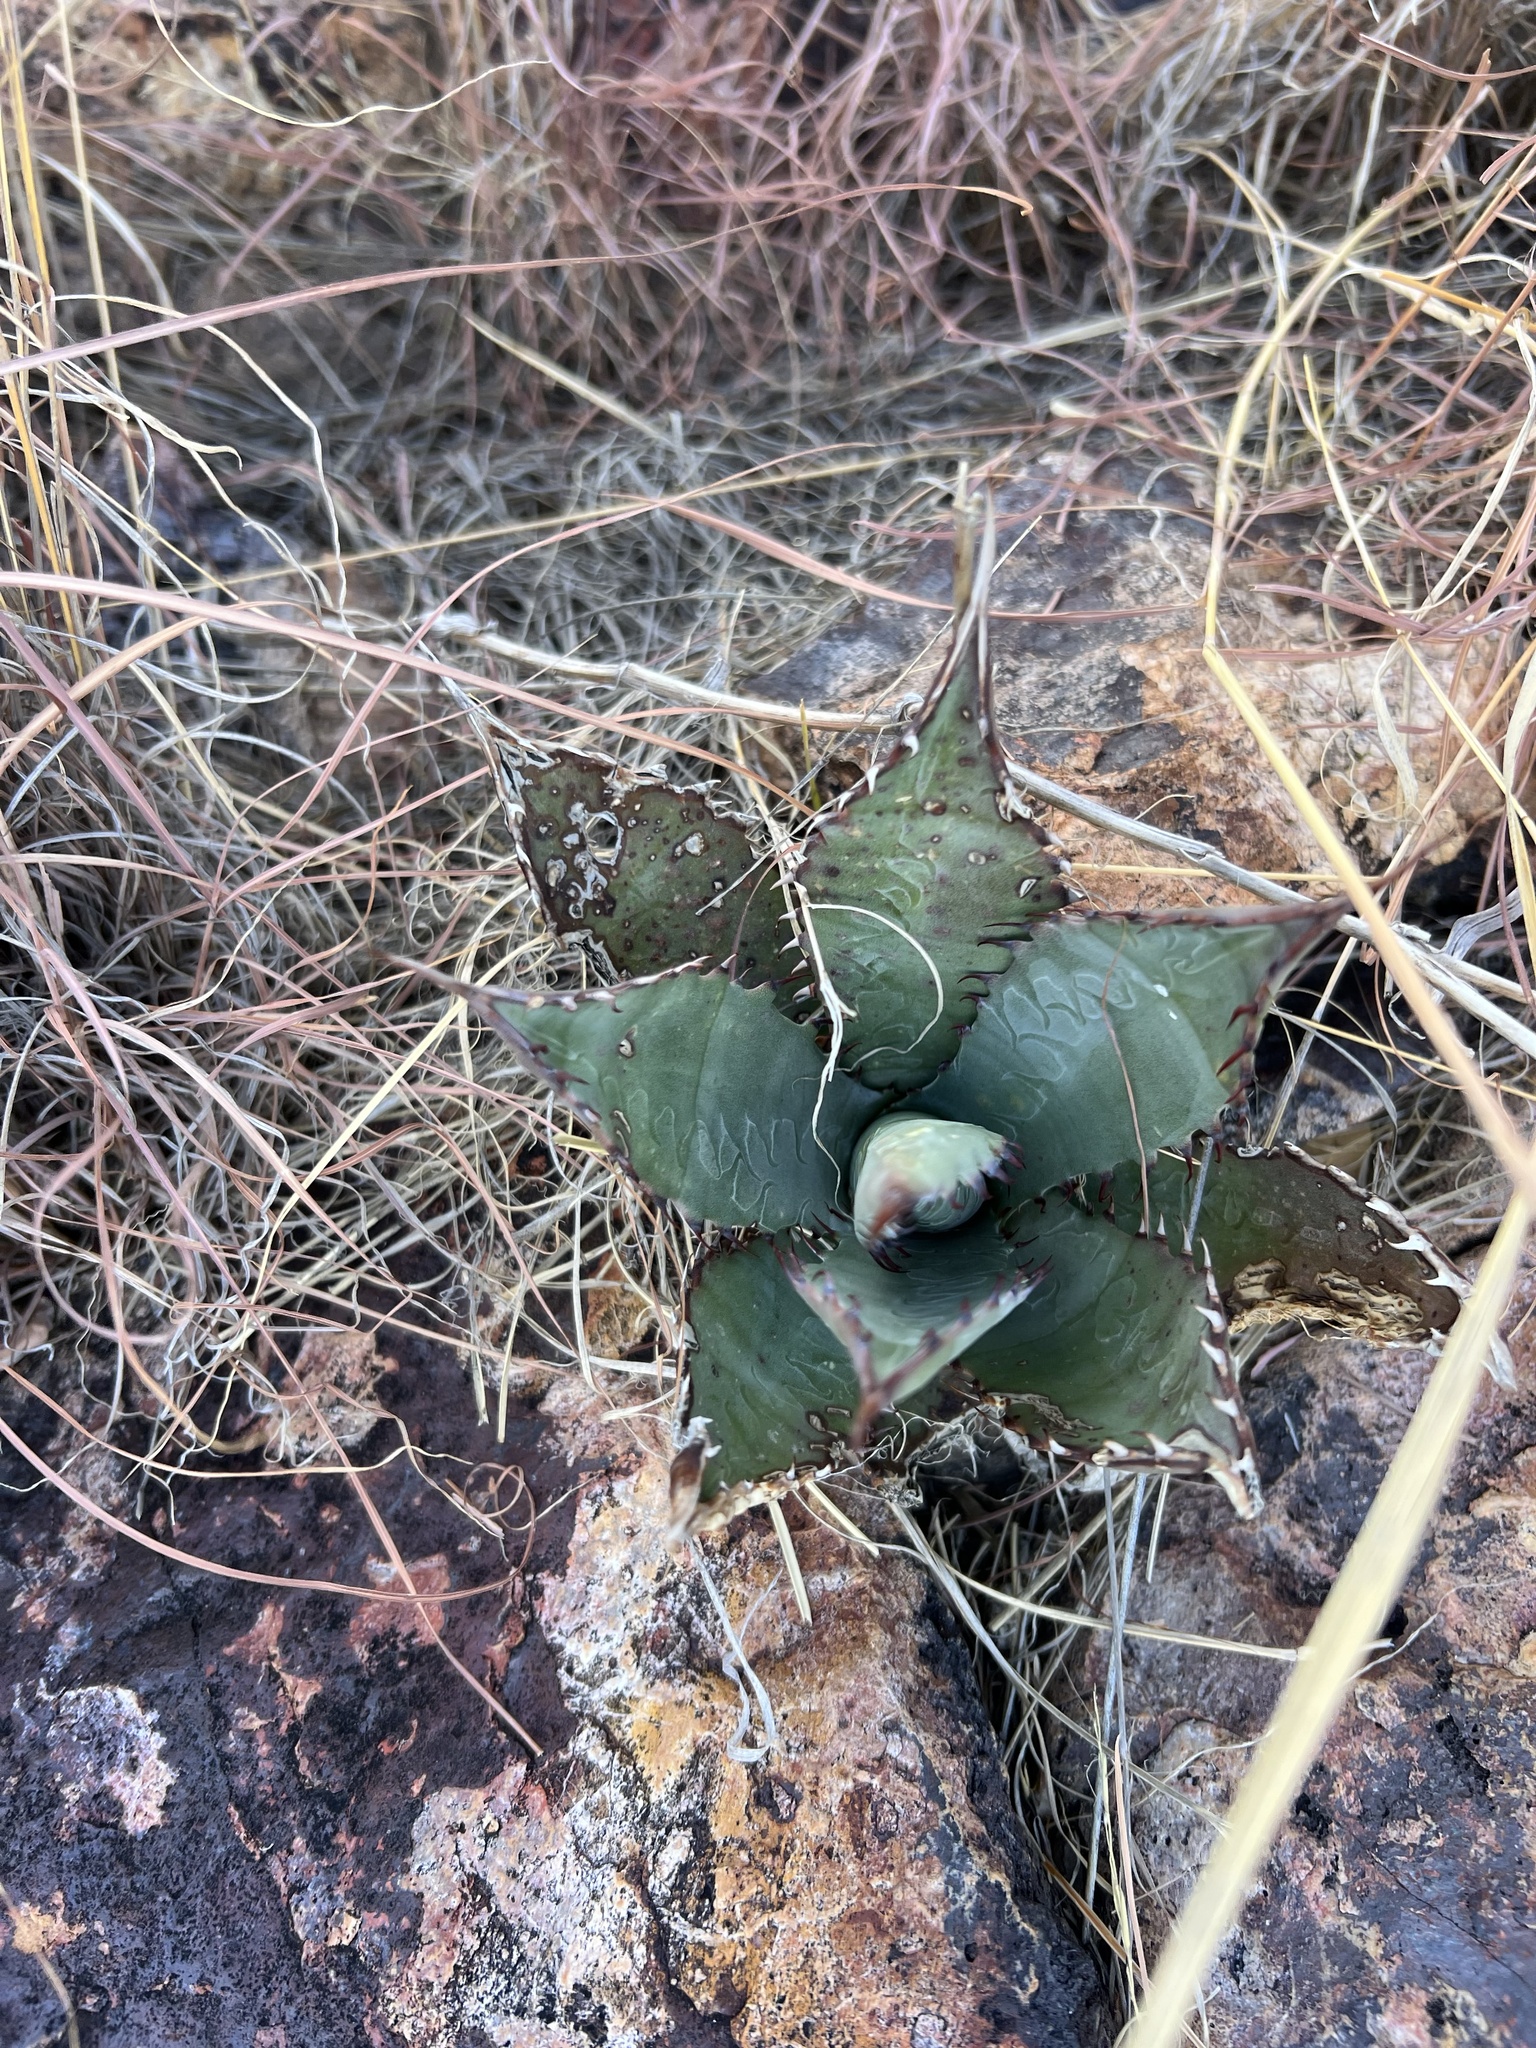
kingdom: Plantae
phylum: Tracheophyta
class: Liliopsida
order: Asparagales
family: Asparagaceae
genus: Agave
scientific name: Agave palmeri
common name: Palmer agave
